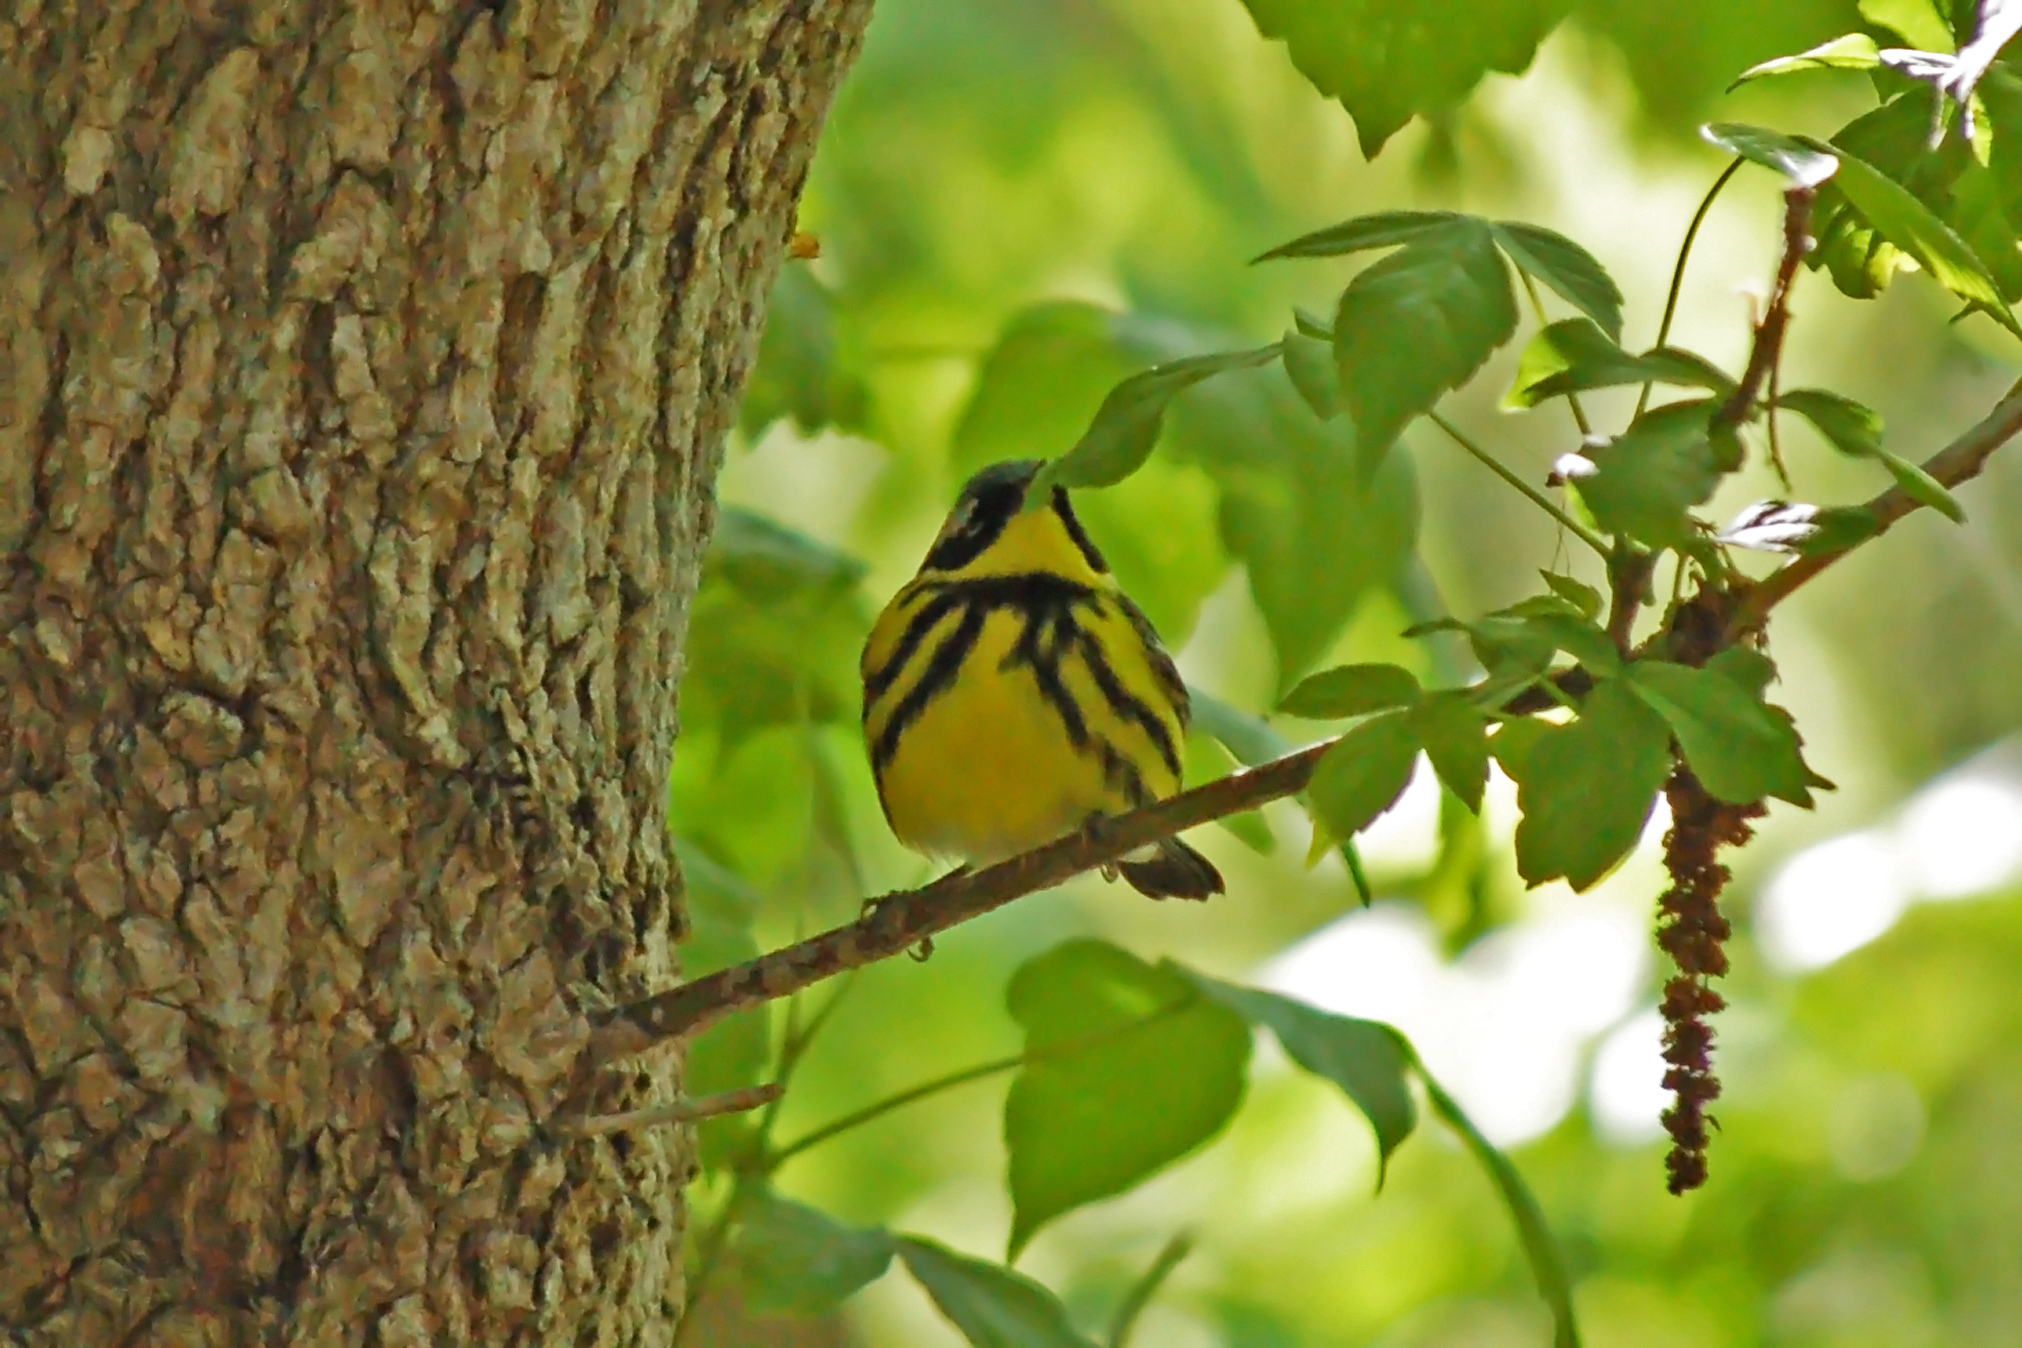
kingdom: Animalia
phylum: Chordata
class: Aves
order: Passeriformes
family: Parulidae
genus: Setophaga
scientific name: Setophaga magnolia
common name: Magnolia warbler
